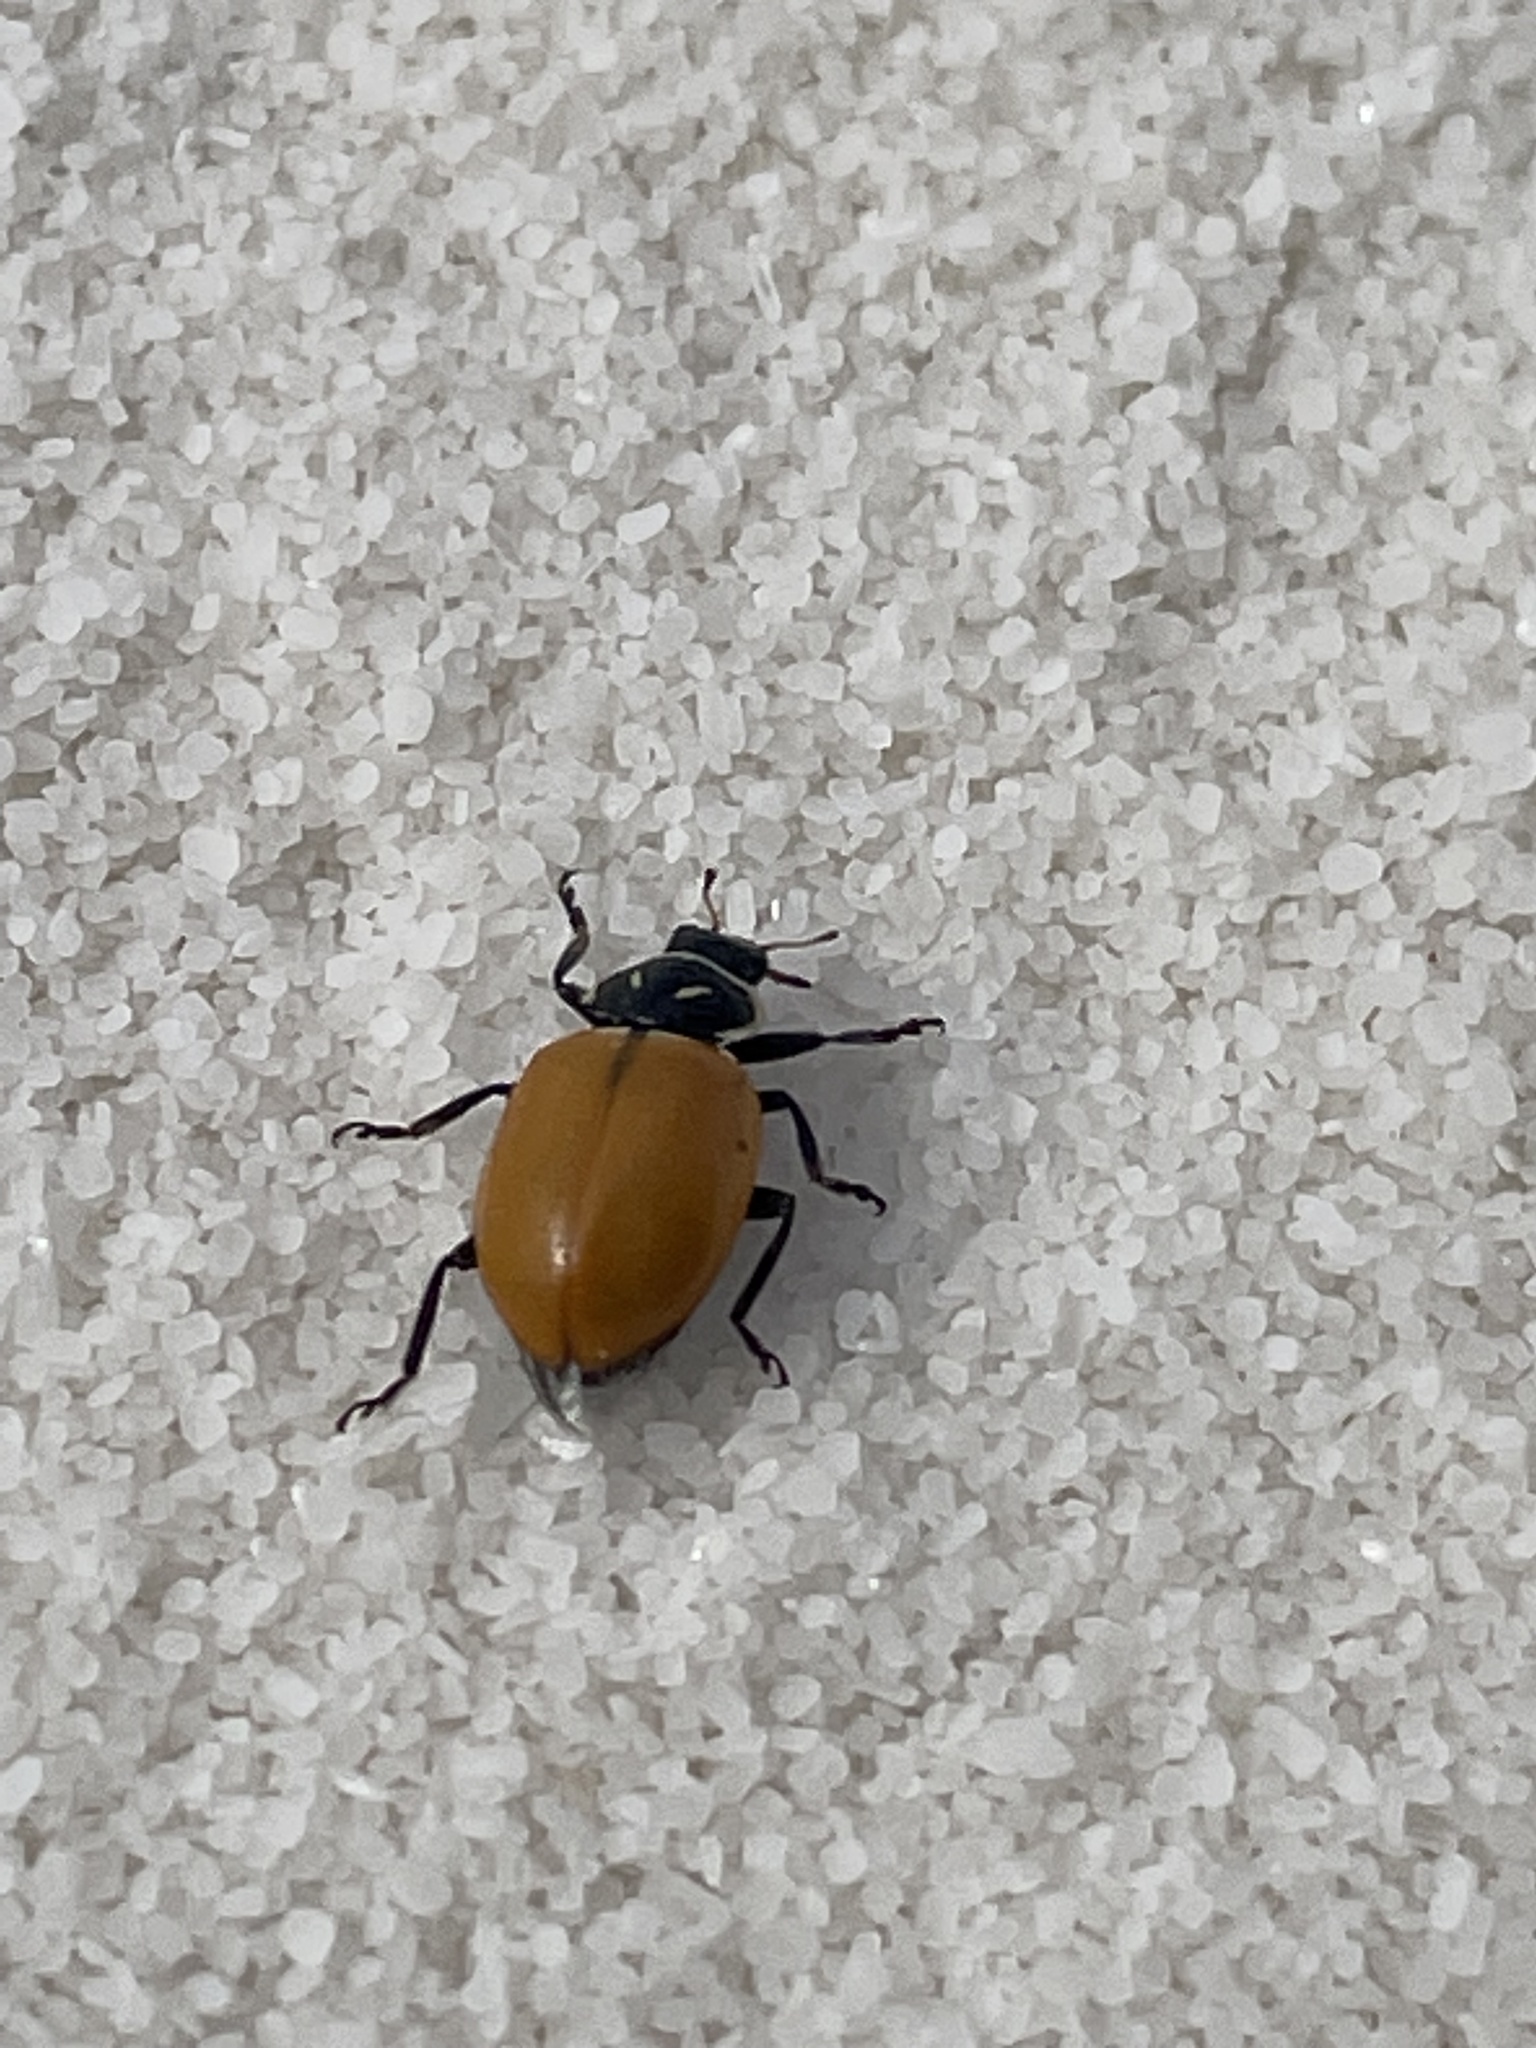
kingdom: Animalia
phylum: Arthropoda
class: Insecta
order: Coleoptera
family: Coccinellidae
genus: Hippodamia
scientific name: Hippodamia convergens
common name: Convergent lady beetle
